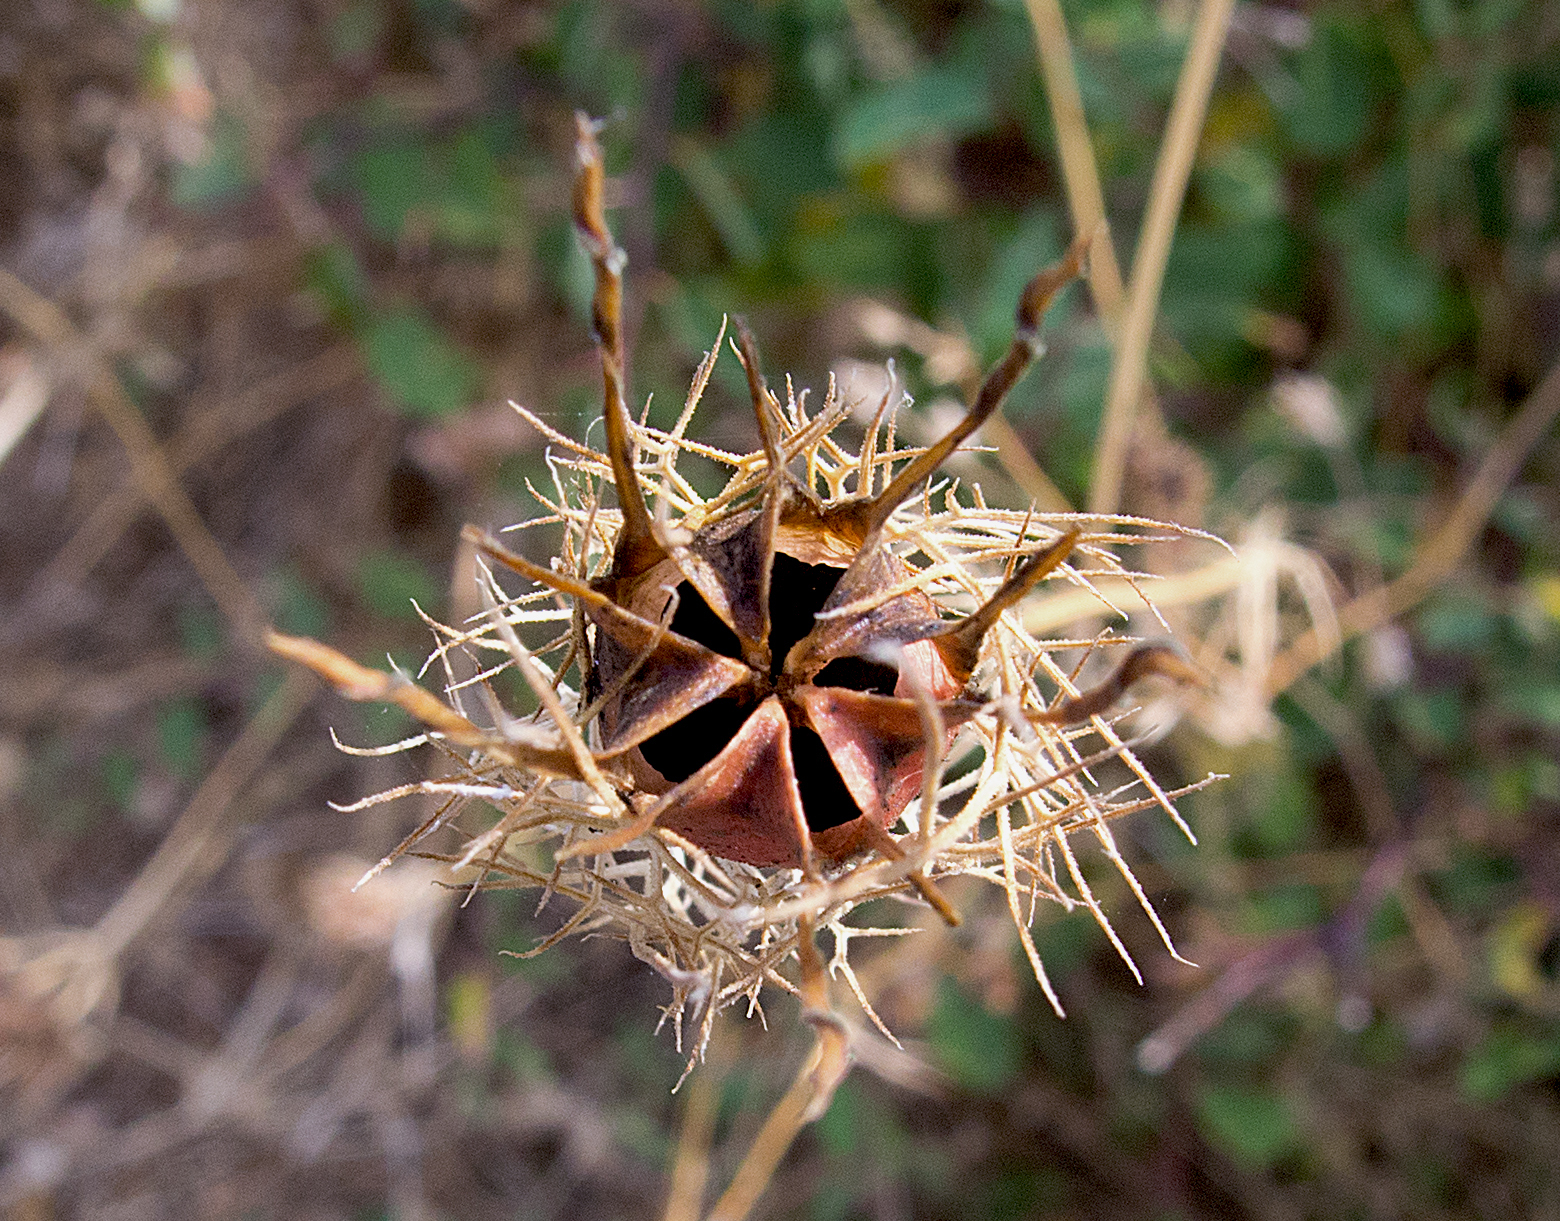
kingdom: Plantae
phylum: Tracheophyta
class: Magnoliopsida
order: Ranunculales
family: Ranunculaceae
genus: Nigella
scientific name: Nigella damascena
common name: Love-in-a-mist
